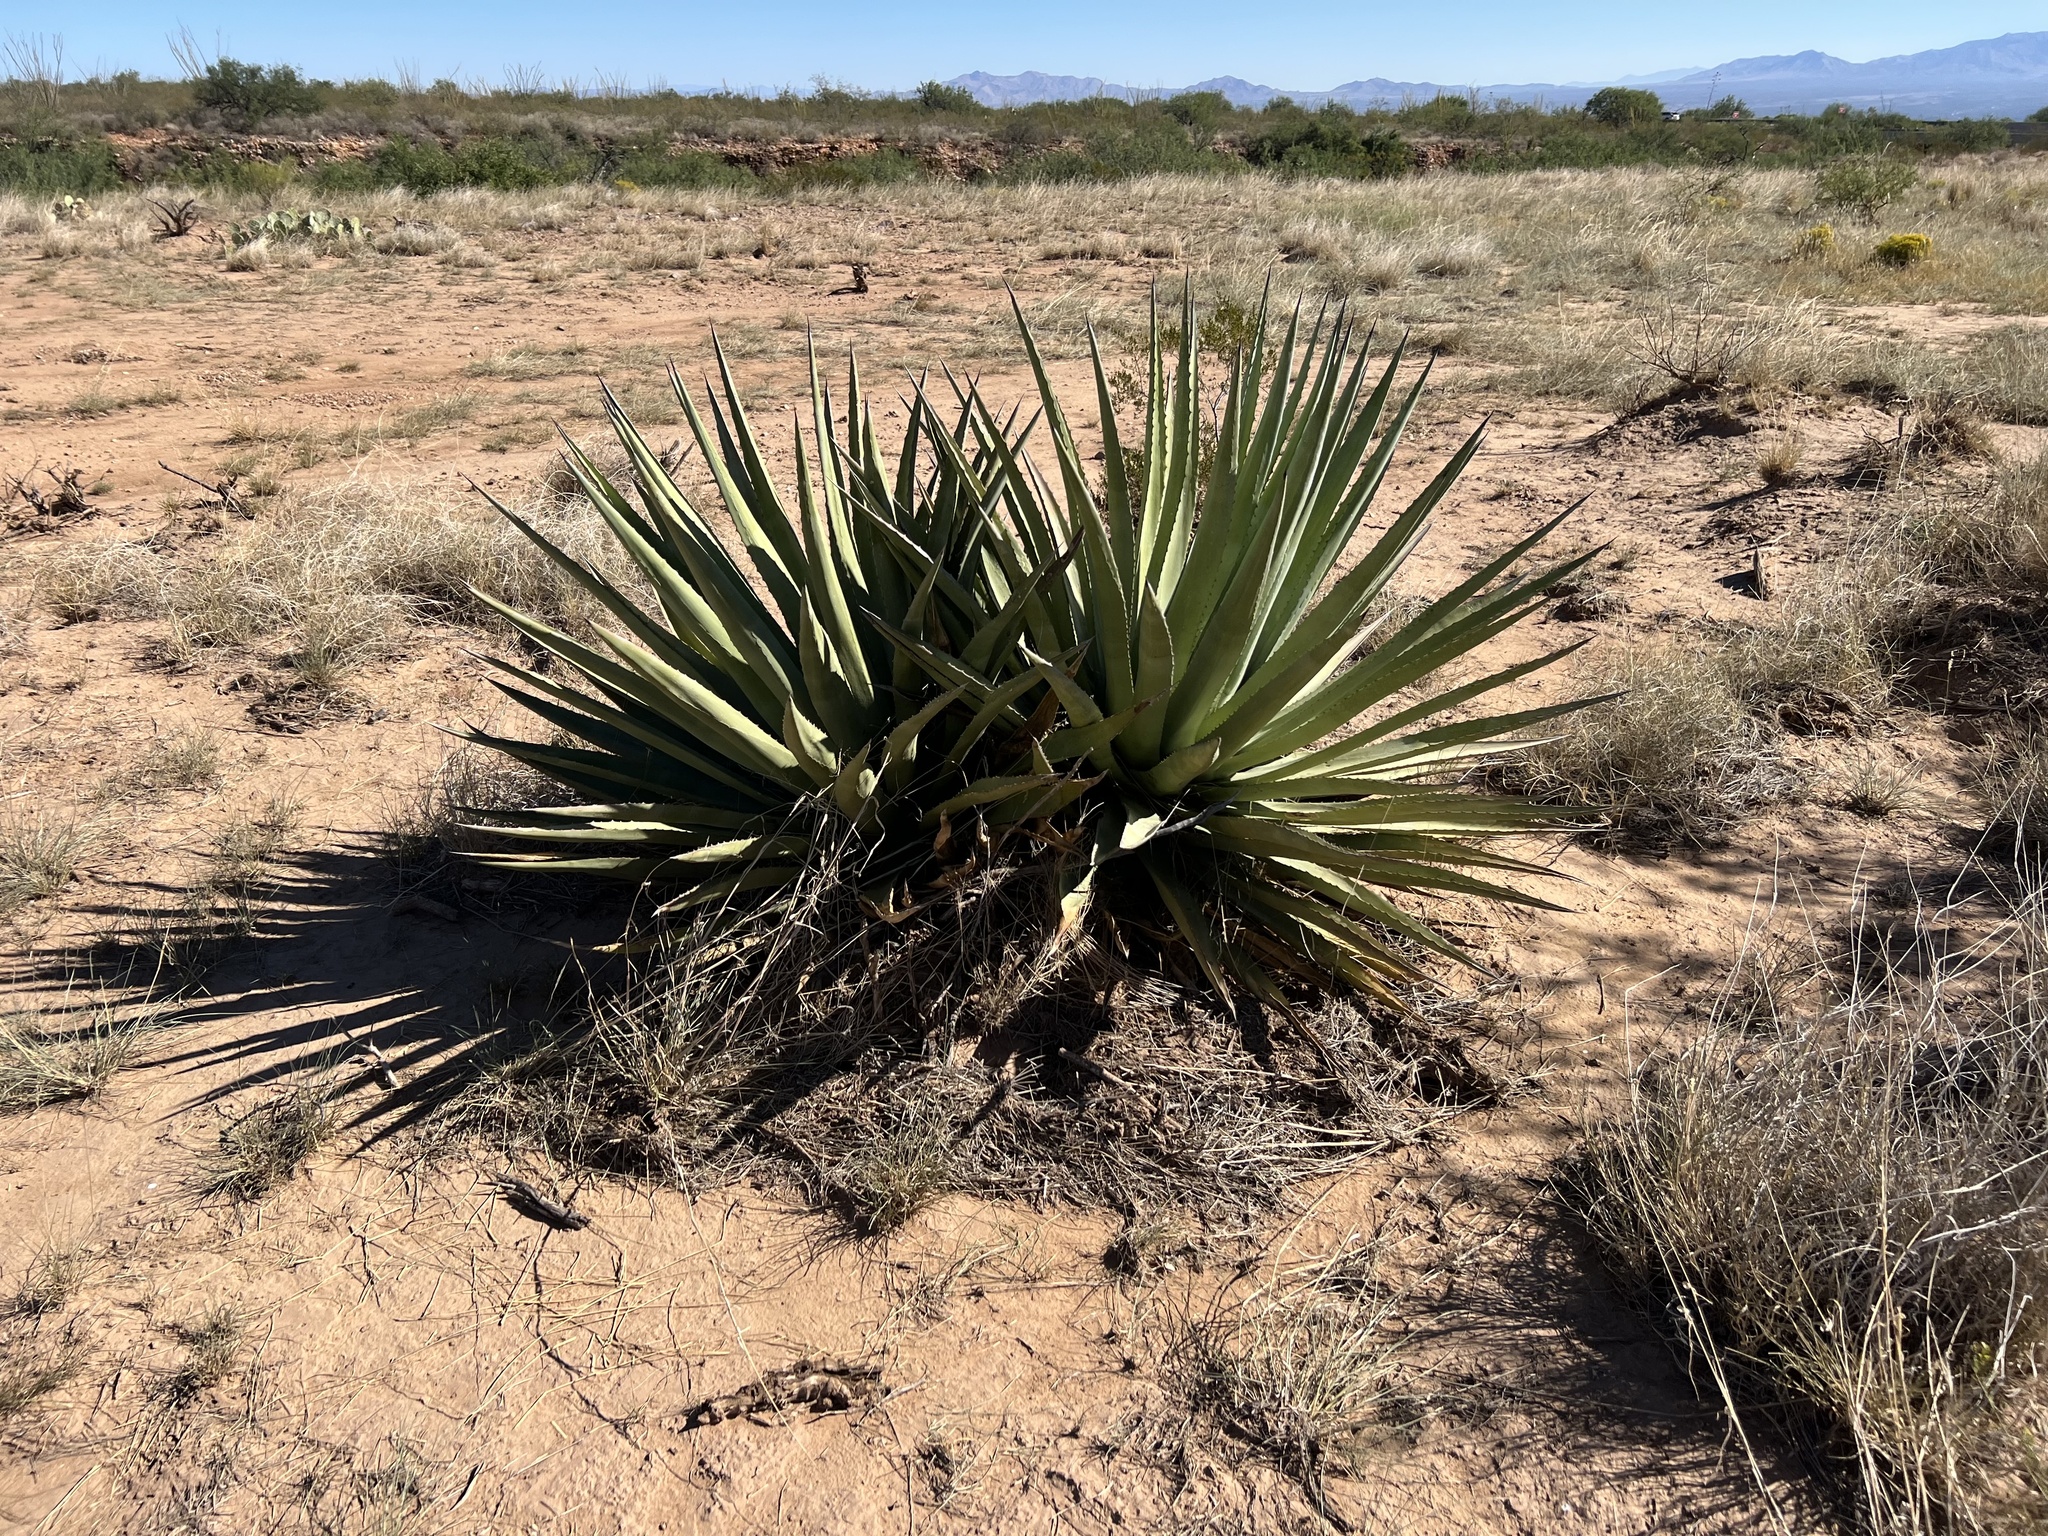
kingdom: Plantae
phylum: Tracheophyta
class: Liliopsida
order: Asparagales
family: Asparagaceae
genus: Agave
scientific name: Agave palmeri
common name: Palmer agave
